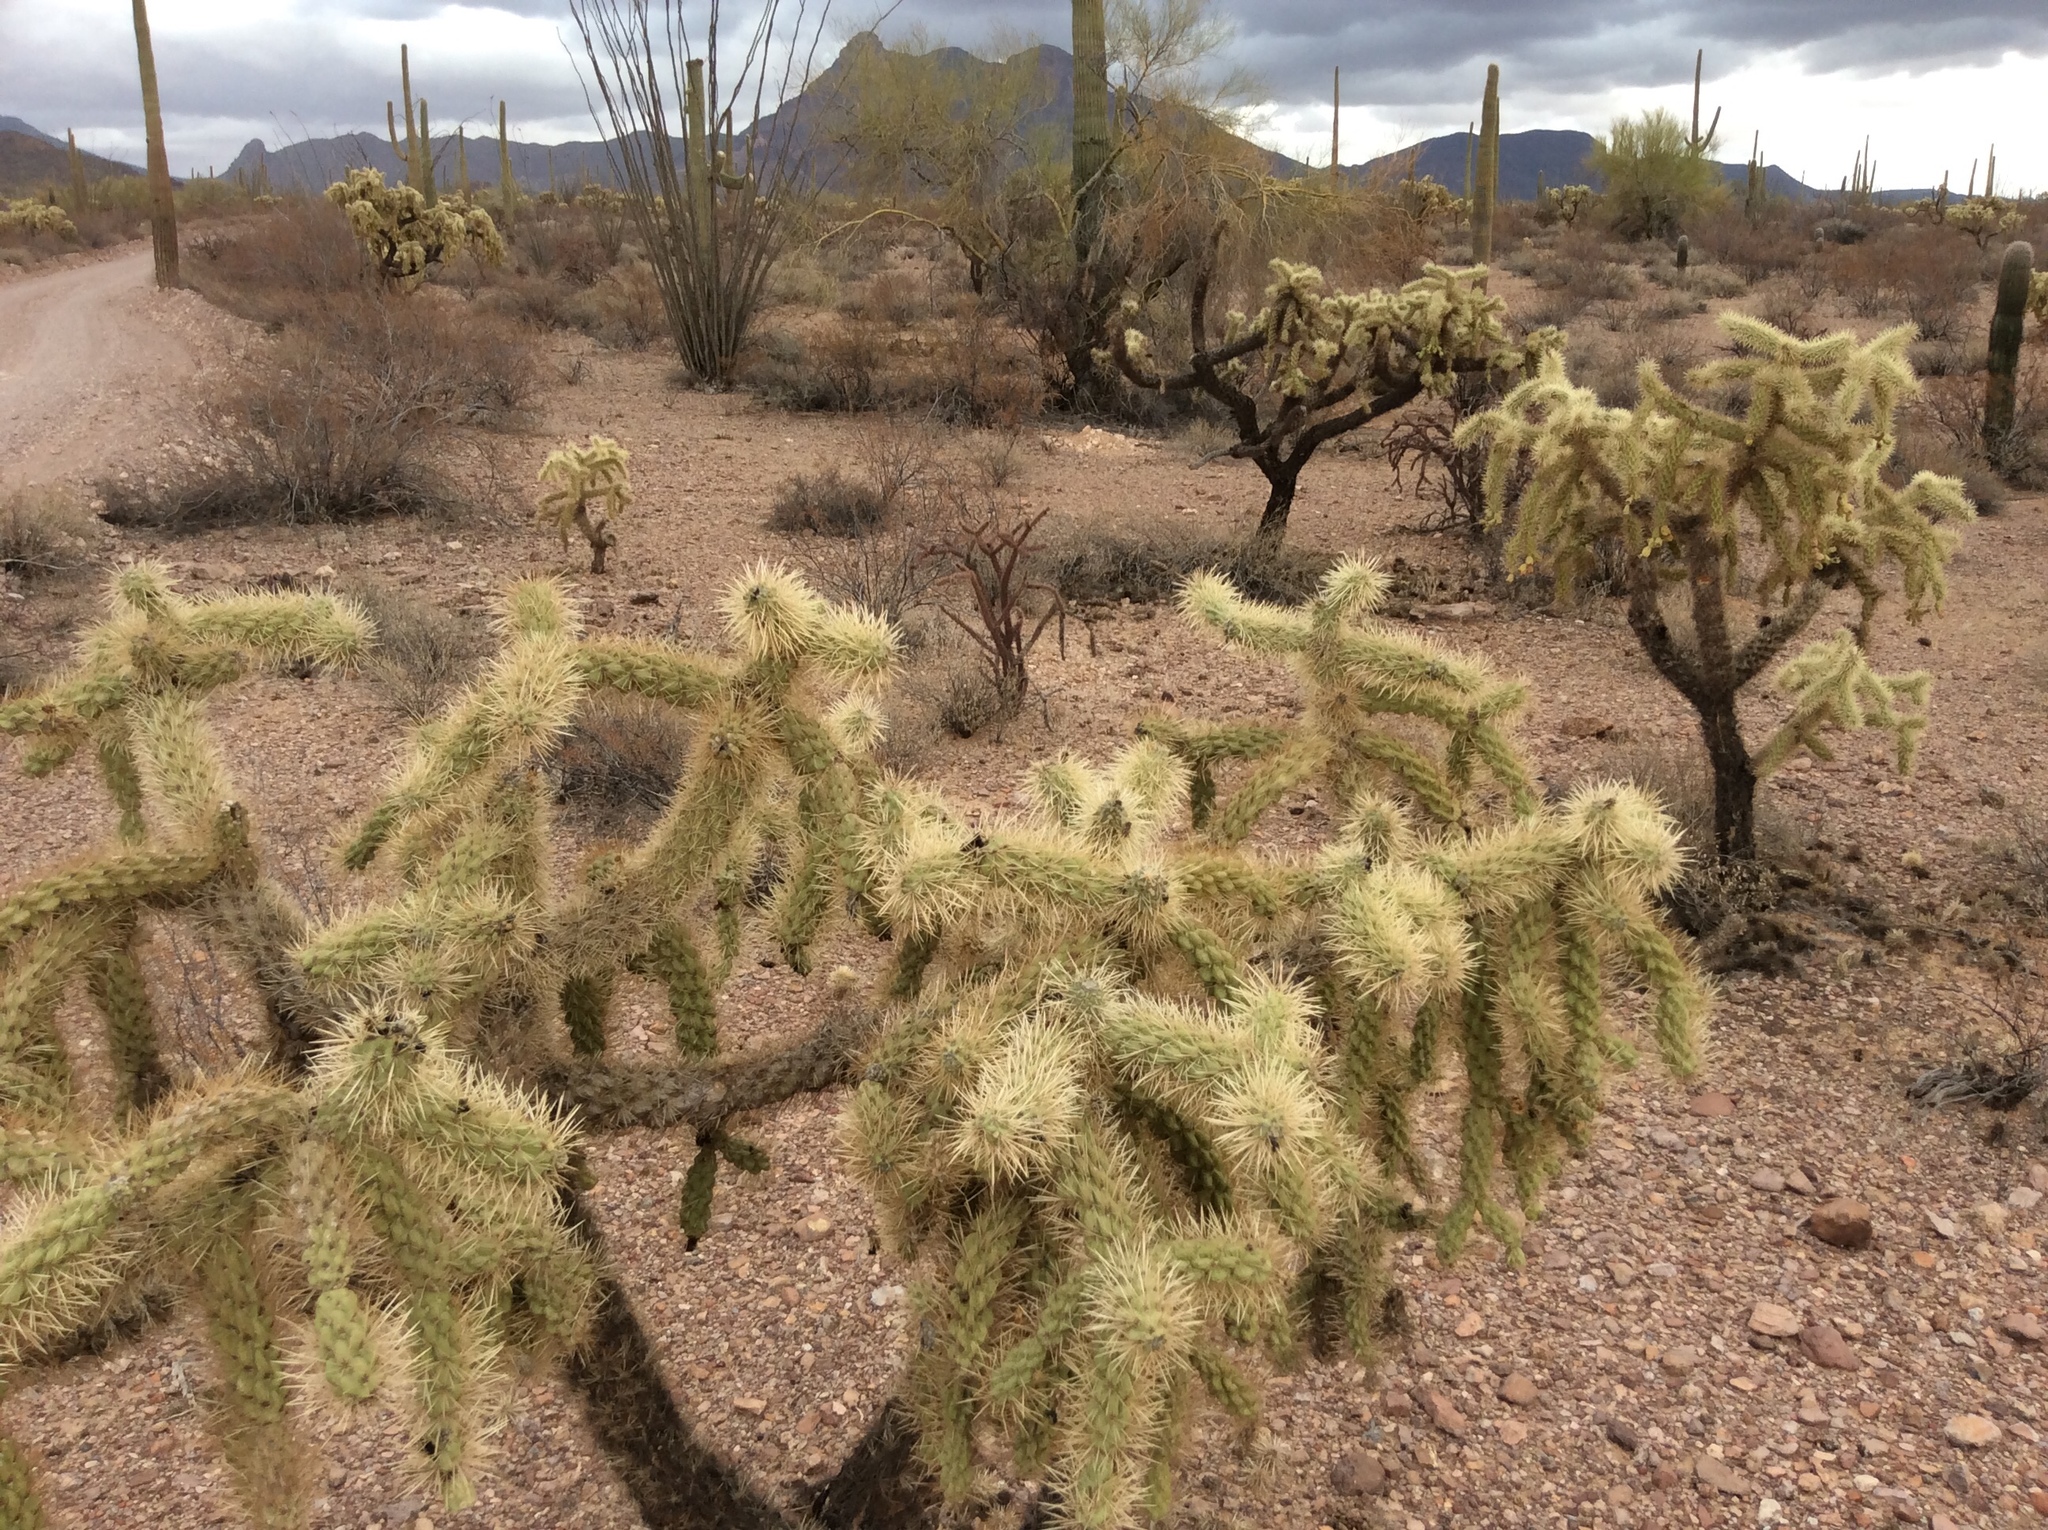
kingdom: Plantae
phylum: Tracheophyta
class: Magnoliopsida
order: Caryophyllales
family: Cactaceae
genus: Cylindropuntia
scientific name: Cylindropuntia fulgida
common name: Jumping cholla
